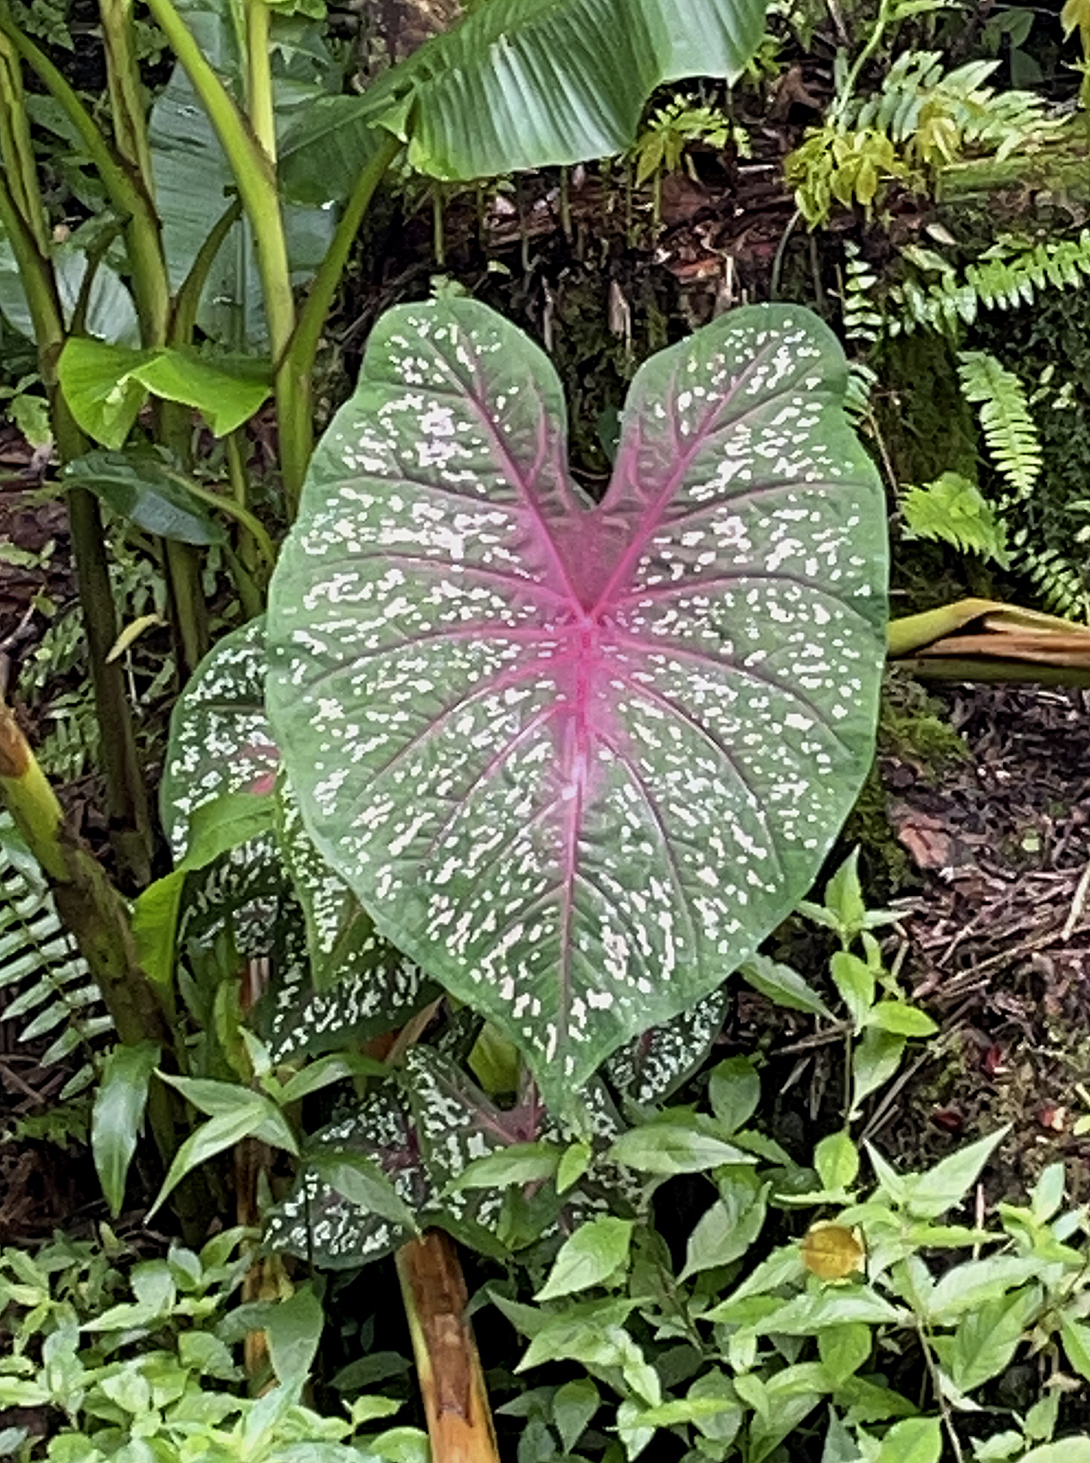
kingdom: Plantae
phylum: Tracheophyta
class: Liliopsida
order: Alismatales
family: Araceae
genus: Caladium
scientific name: Caladium bicolor
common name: Artist's pallet
